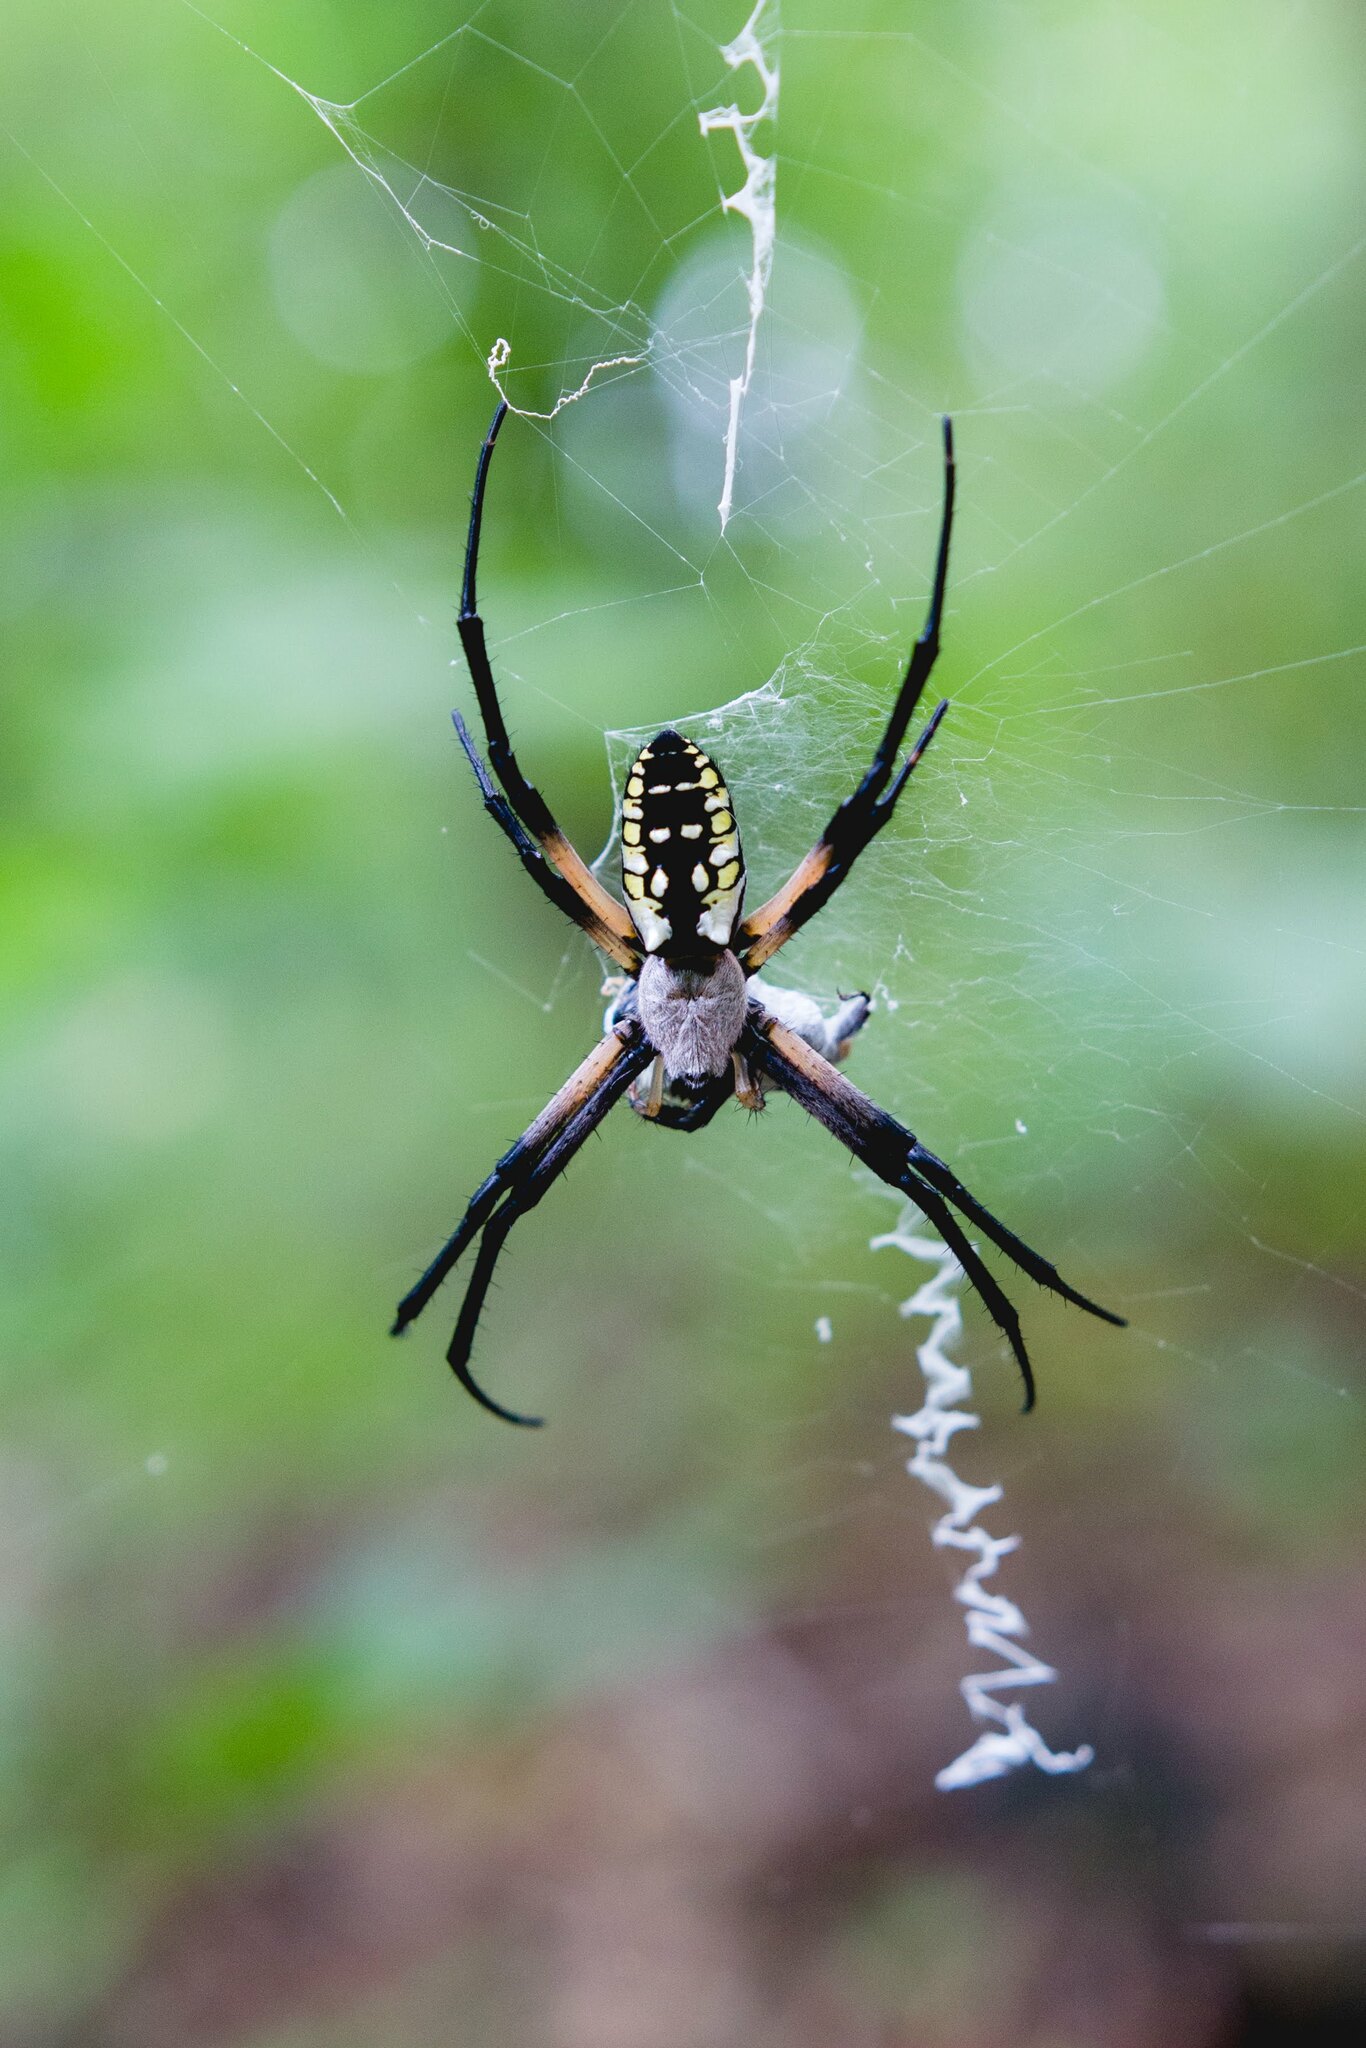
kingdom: Animalia
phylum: Arthropoda
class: Arachnida
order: Araneae
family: Araneidae
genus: Argiope
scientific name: Argiope aurantia
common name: Orb weavers
